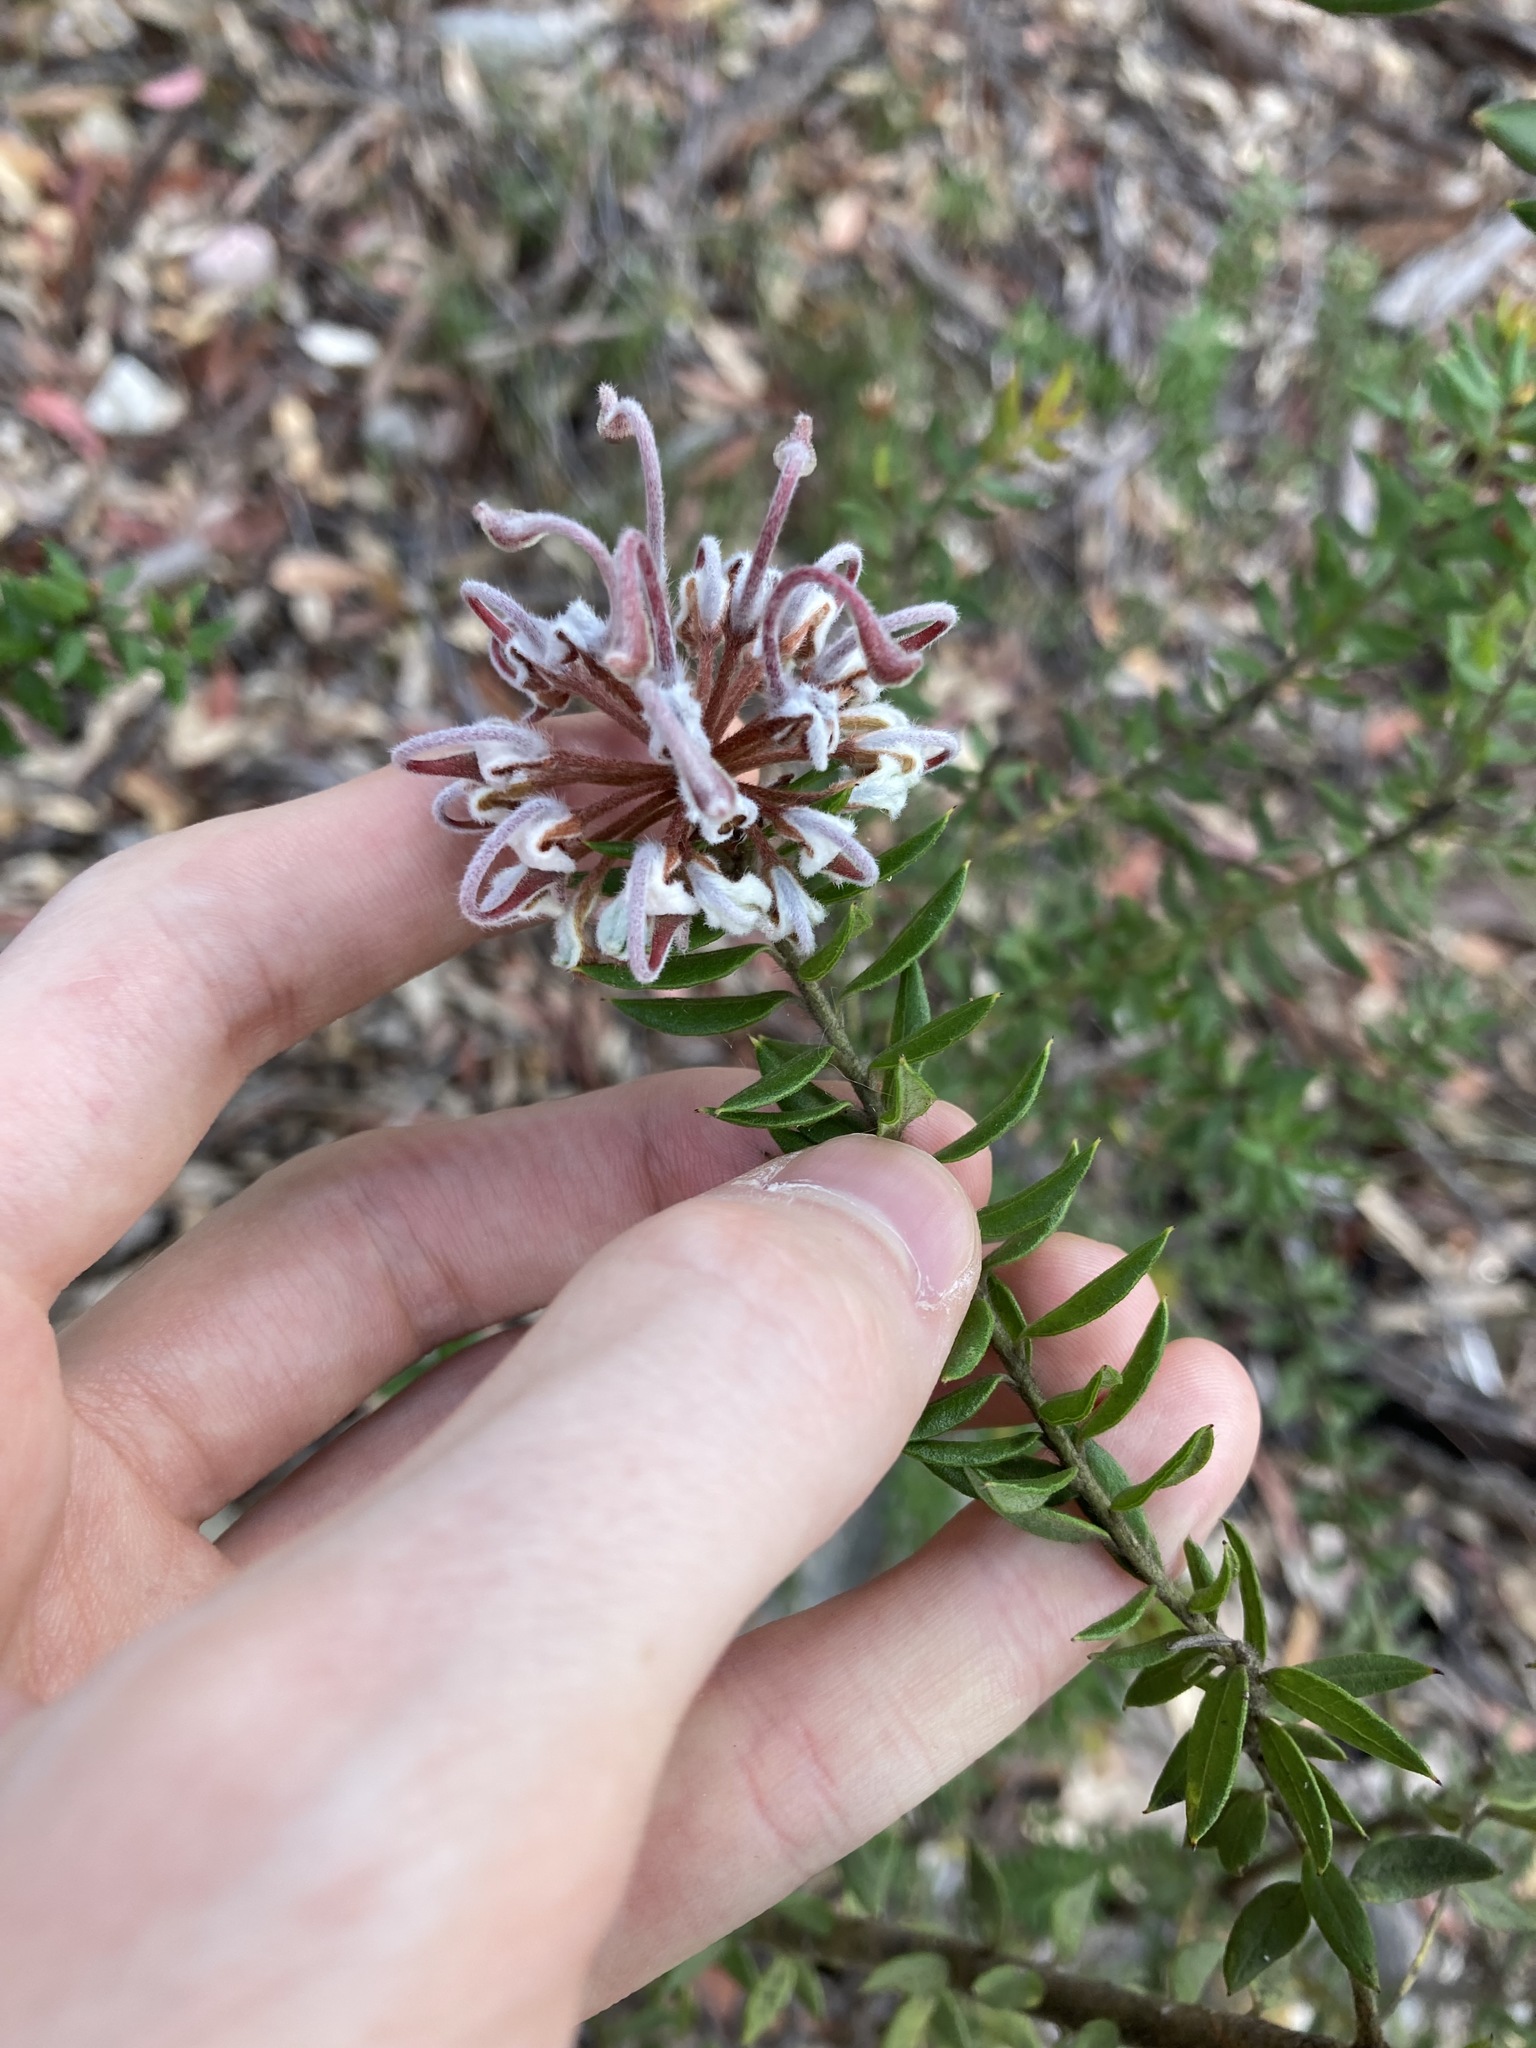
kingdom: Plantae
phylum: Tracheophyta
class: Magnoliopsida
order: Proteales
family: Proteaceae
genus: Grevillea
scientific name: Grevillea buxifolia
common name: Grey spiderflower
